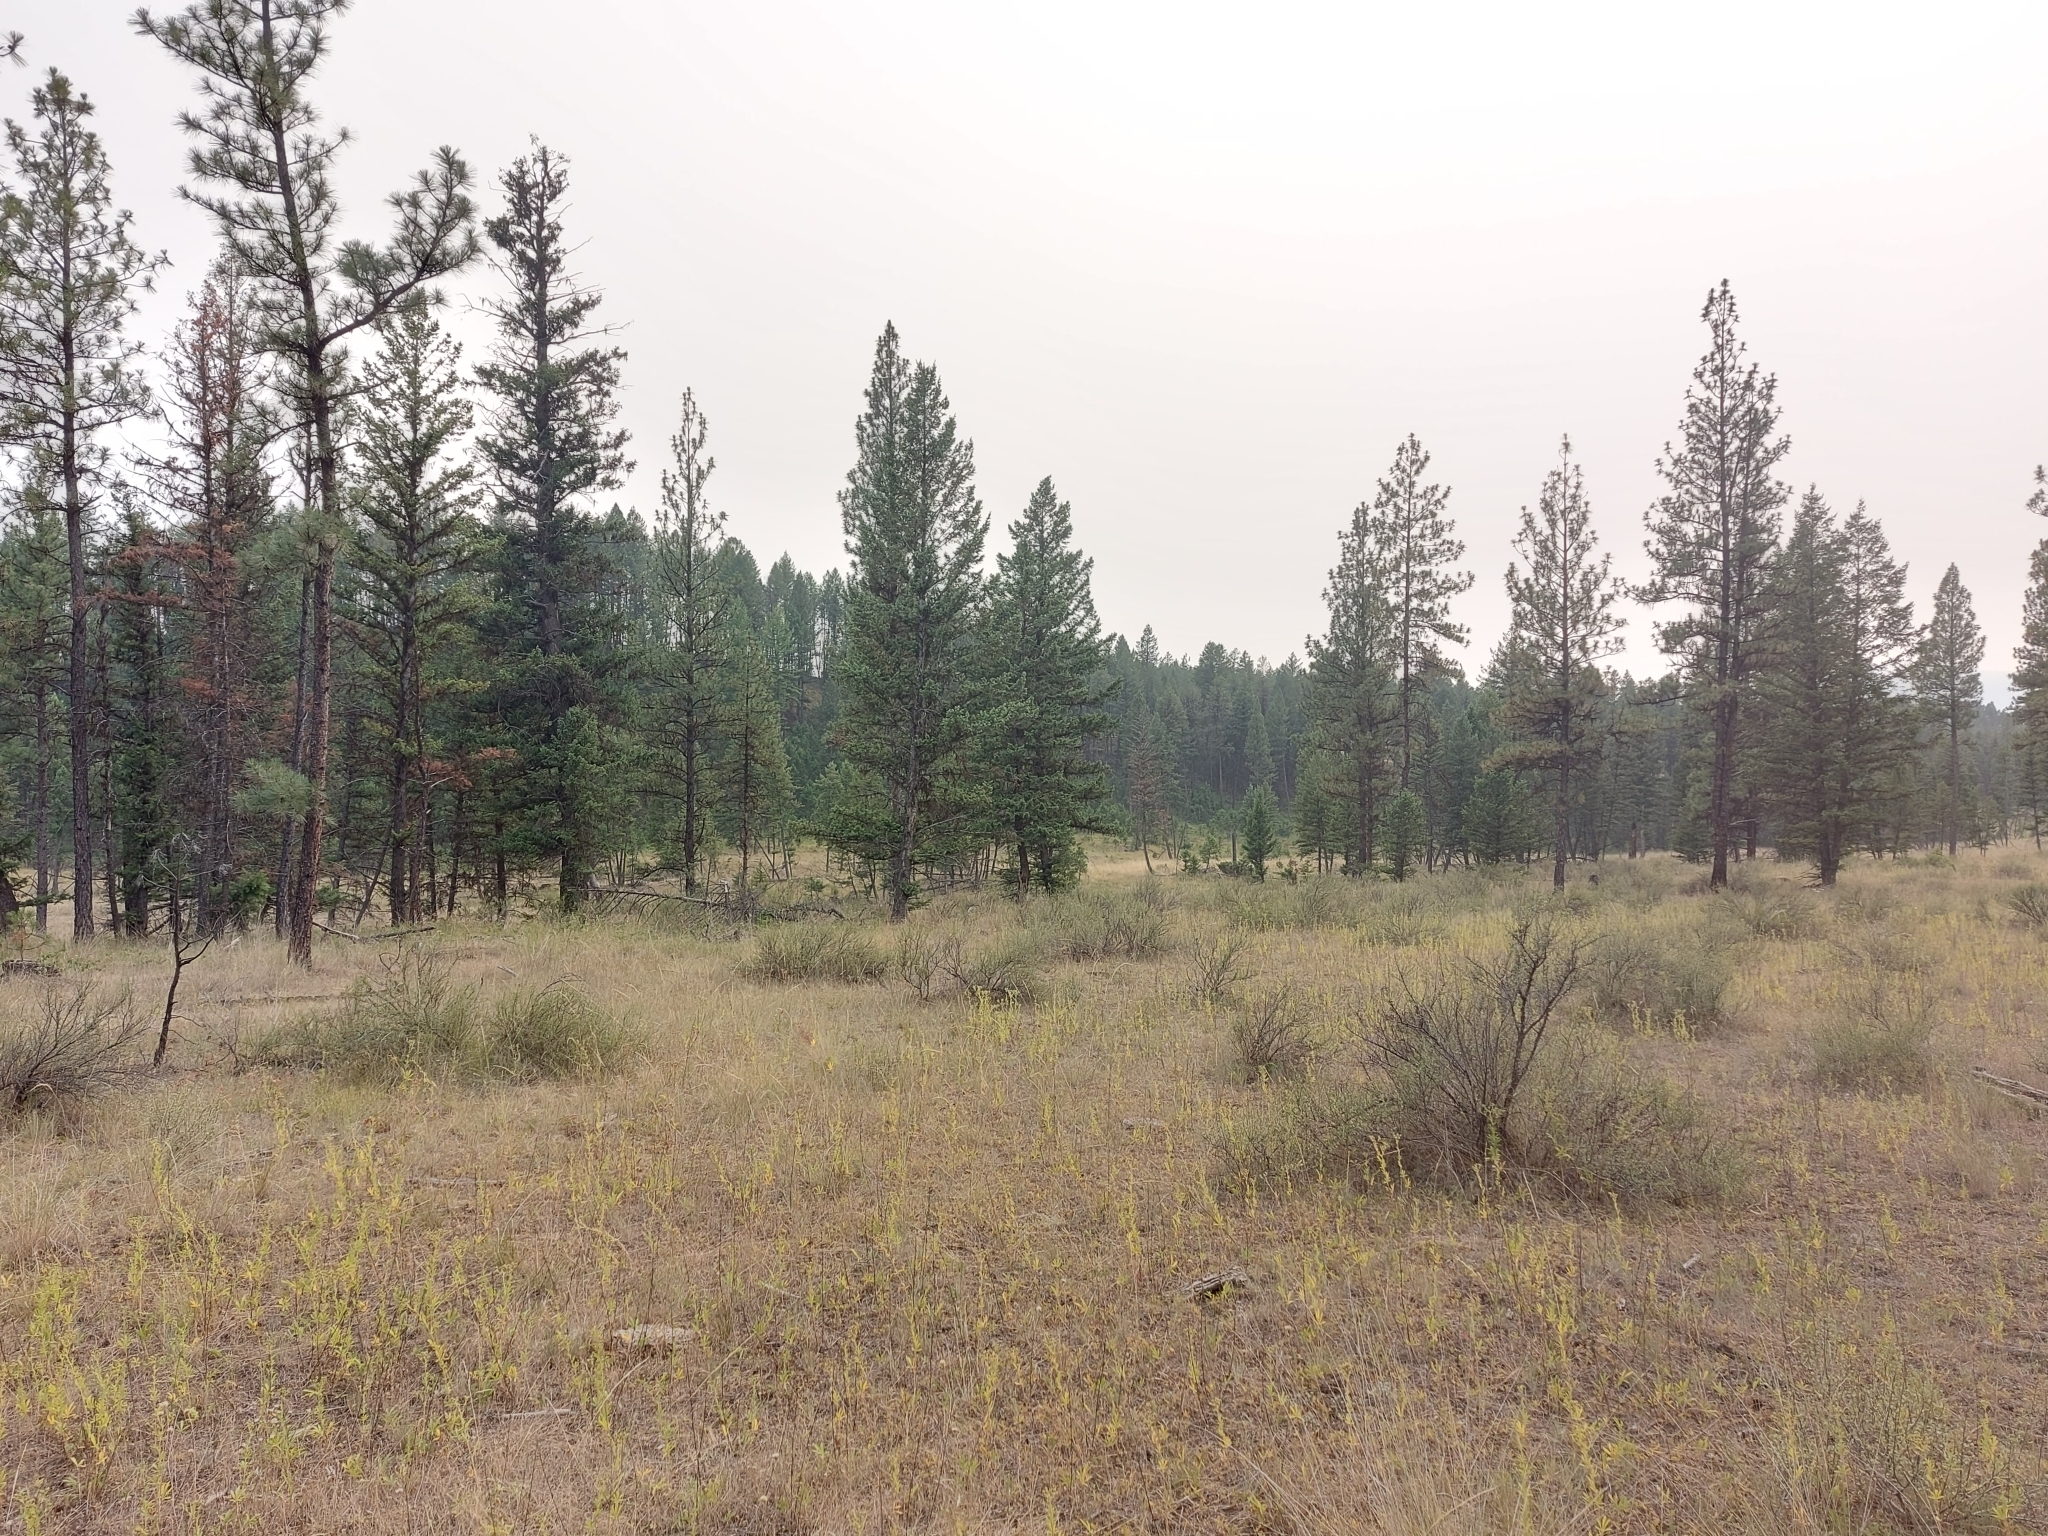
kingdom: Animalia
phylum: Chordata
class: Aves
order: Caprimulgiformes
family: Caprimulgidae
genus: Chordeiles
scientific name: Chordeiles minor
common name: Common nighthawk
